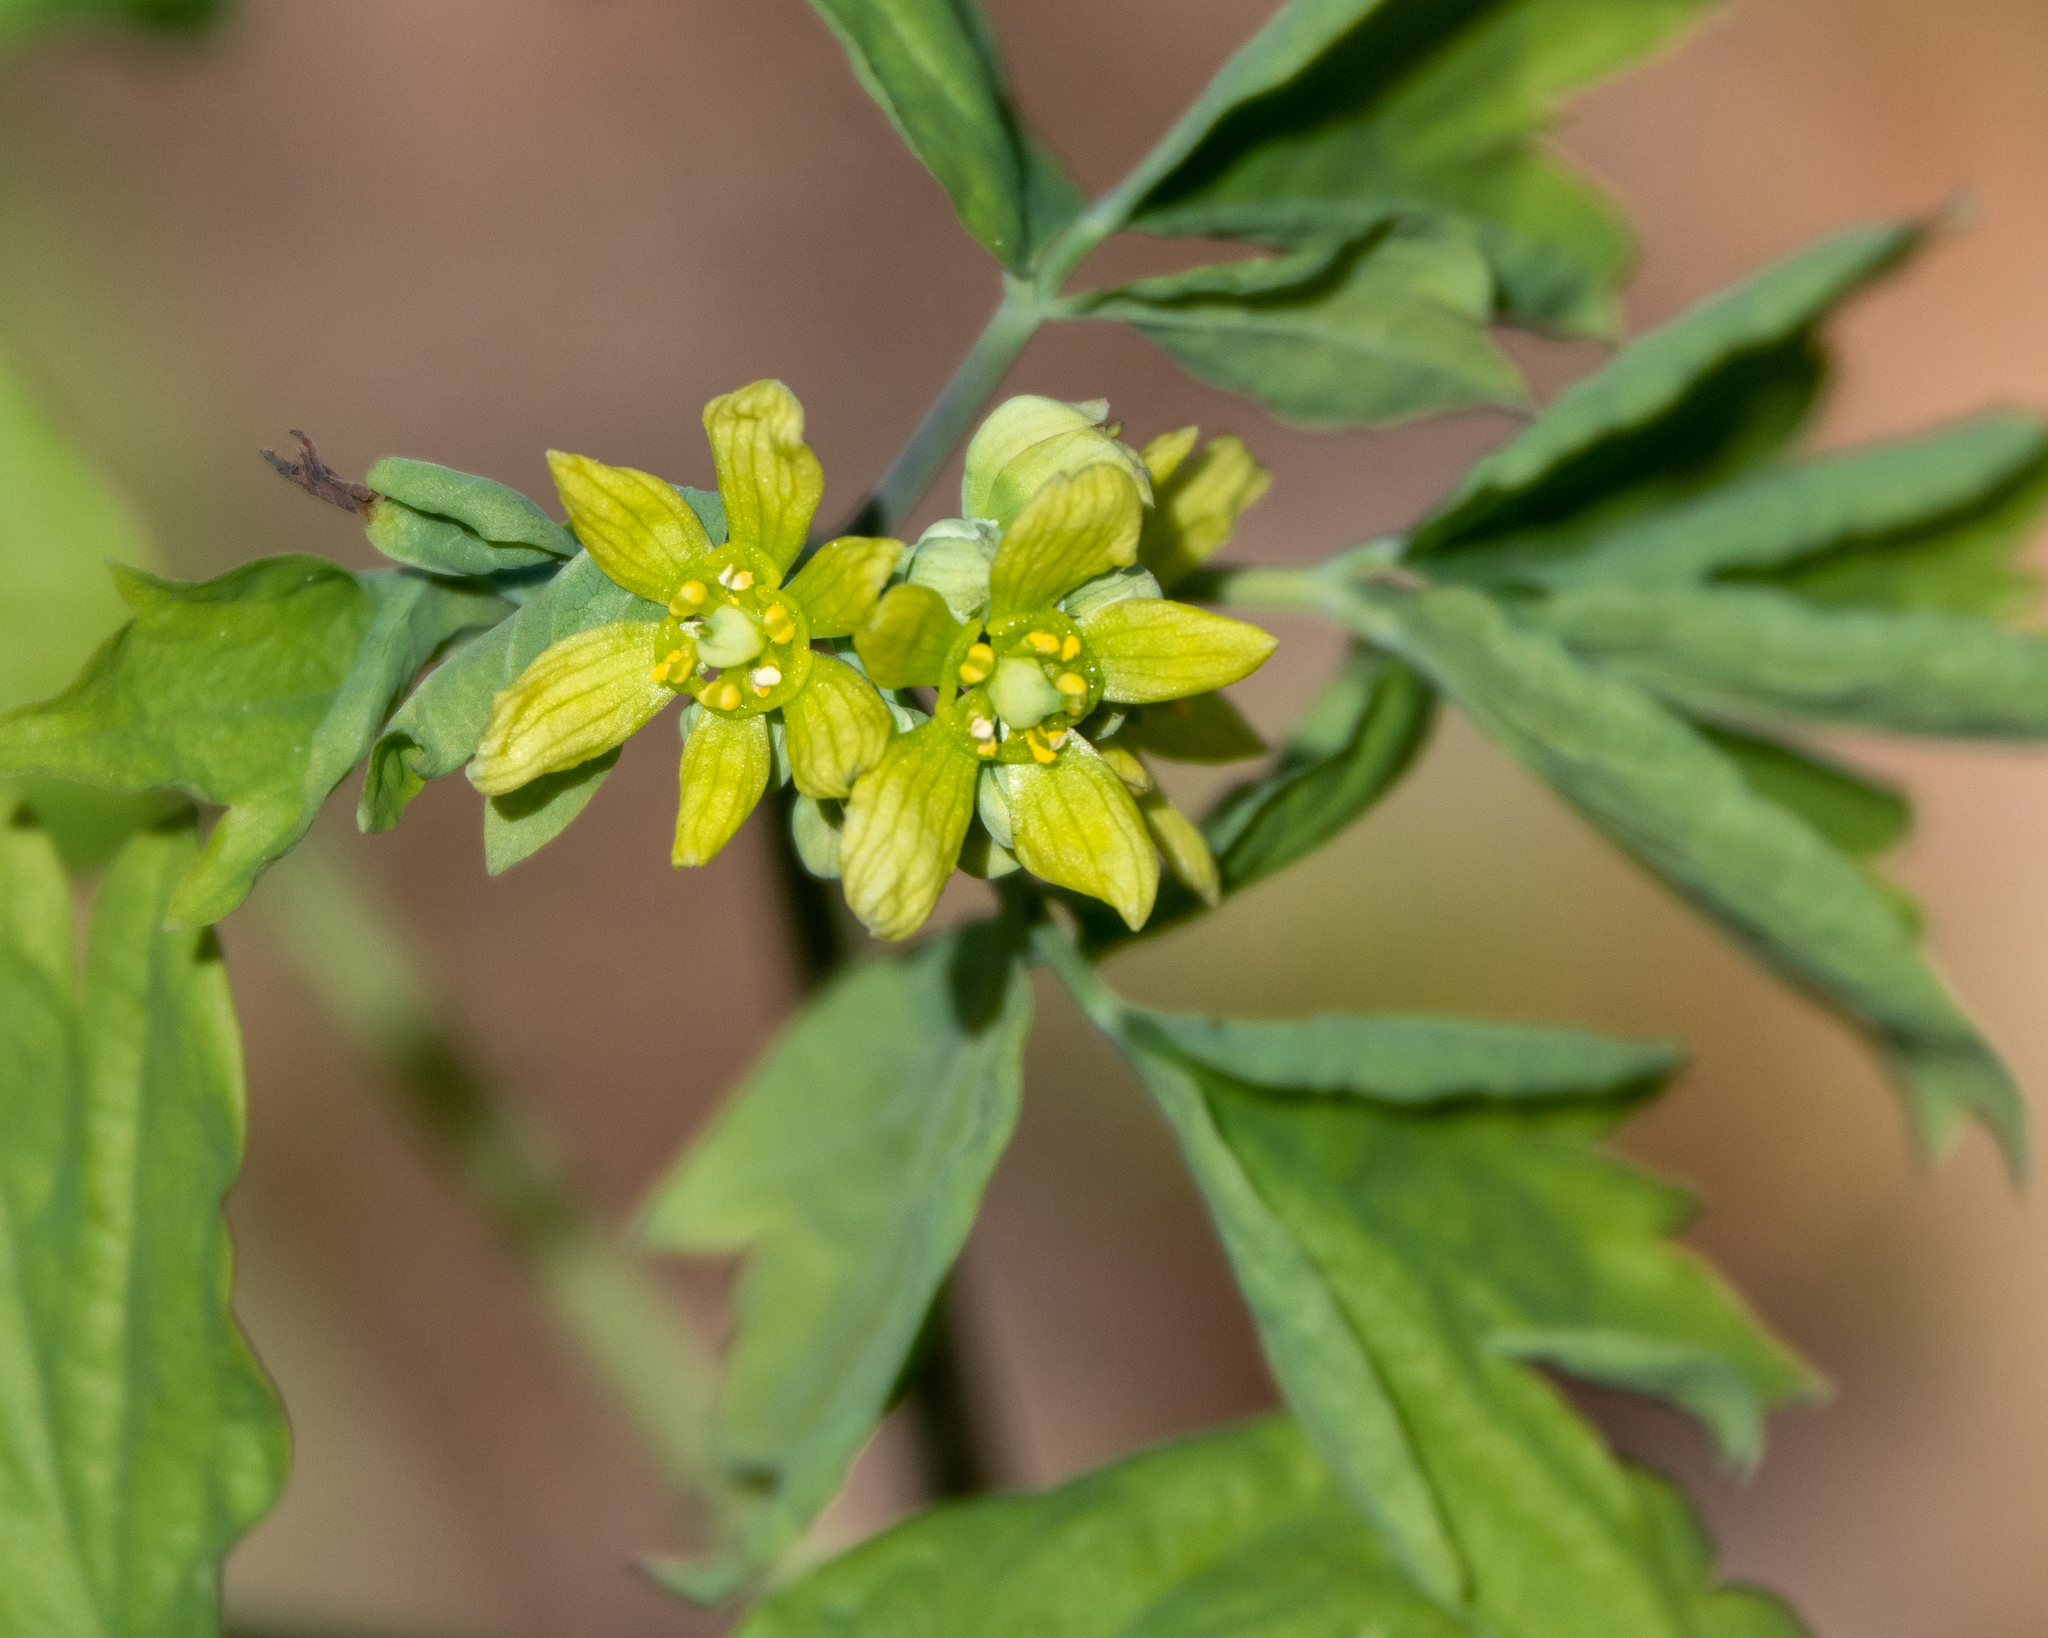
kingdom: Plantae
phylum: Tracheophyta
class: Magnoliopsida
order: Ranunculales
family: Berberidaceae
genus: Caulophyllum
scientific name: Caulophyllum thalictroides
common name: Blue cohosh
